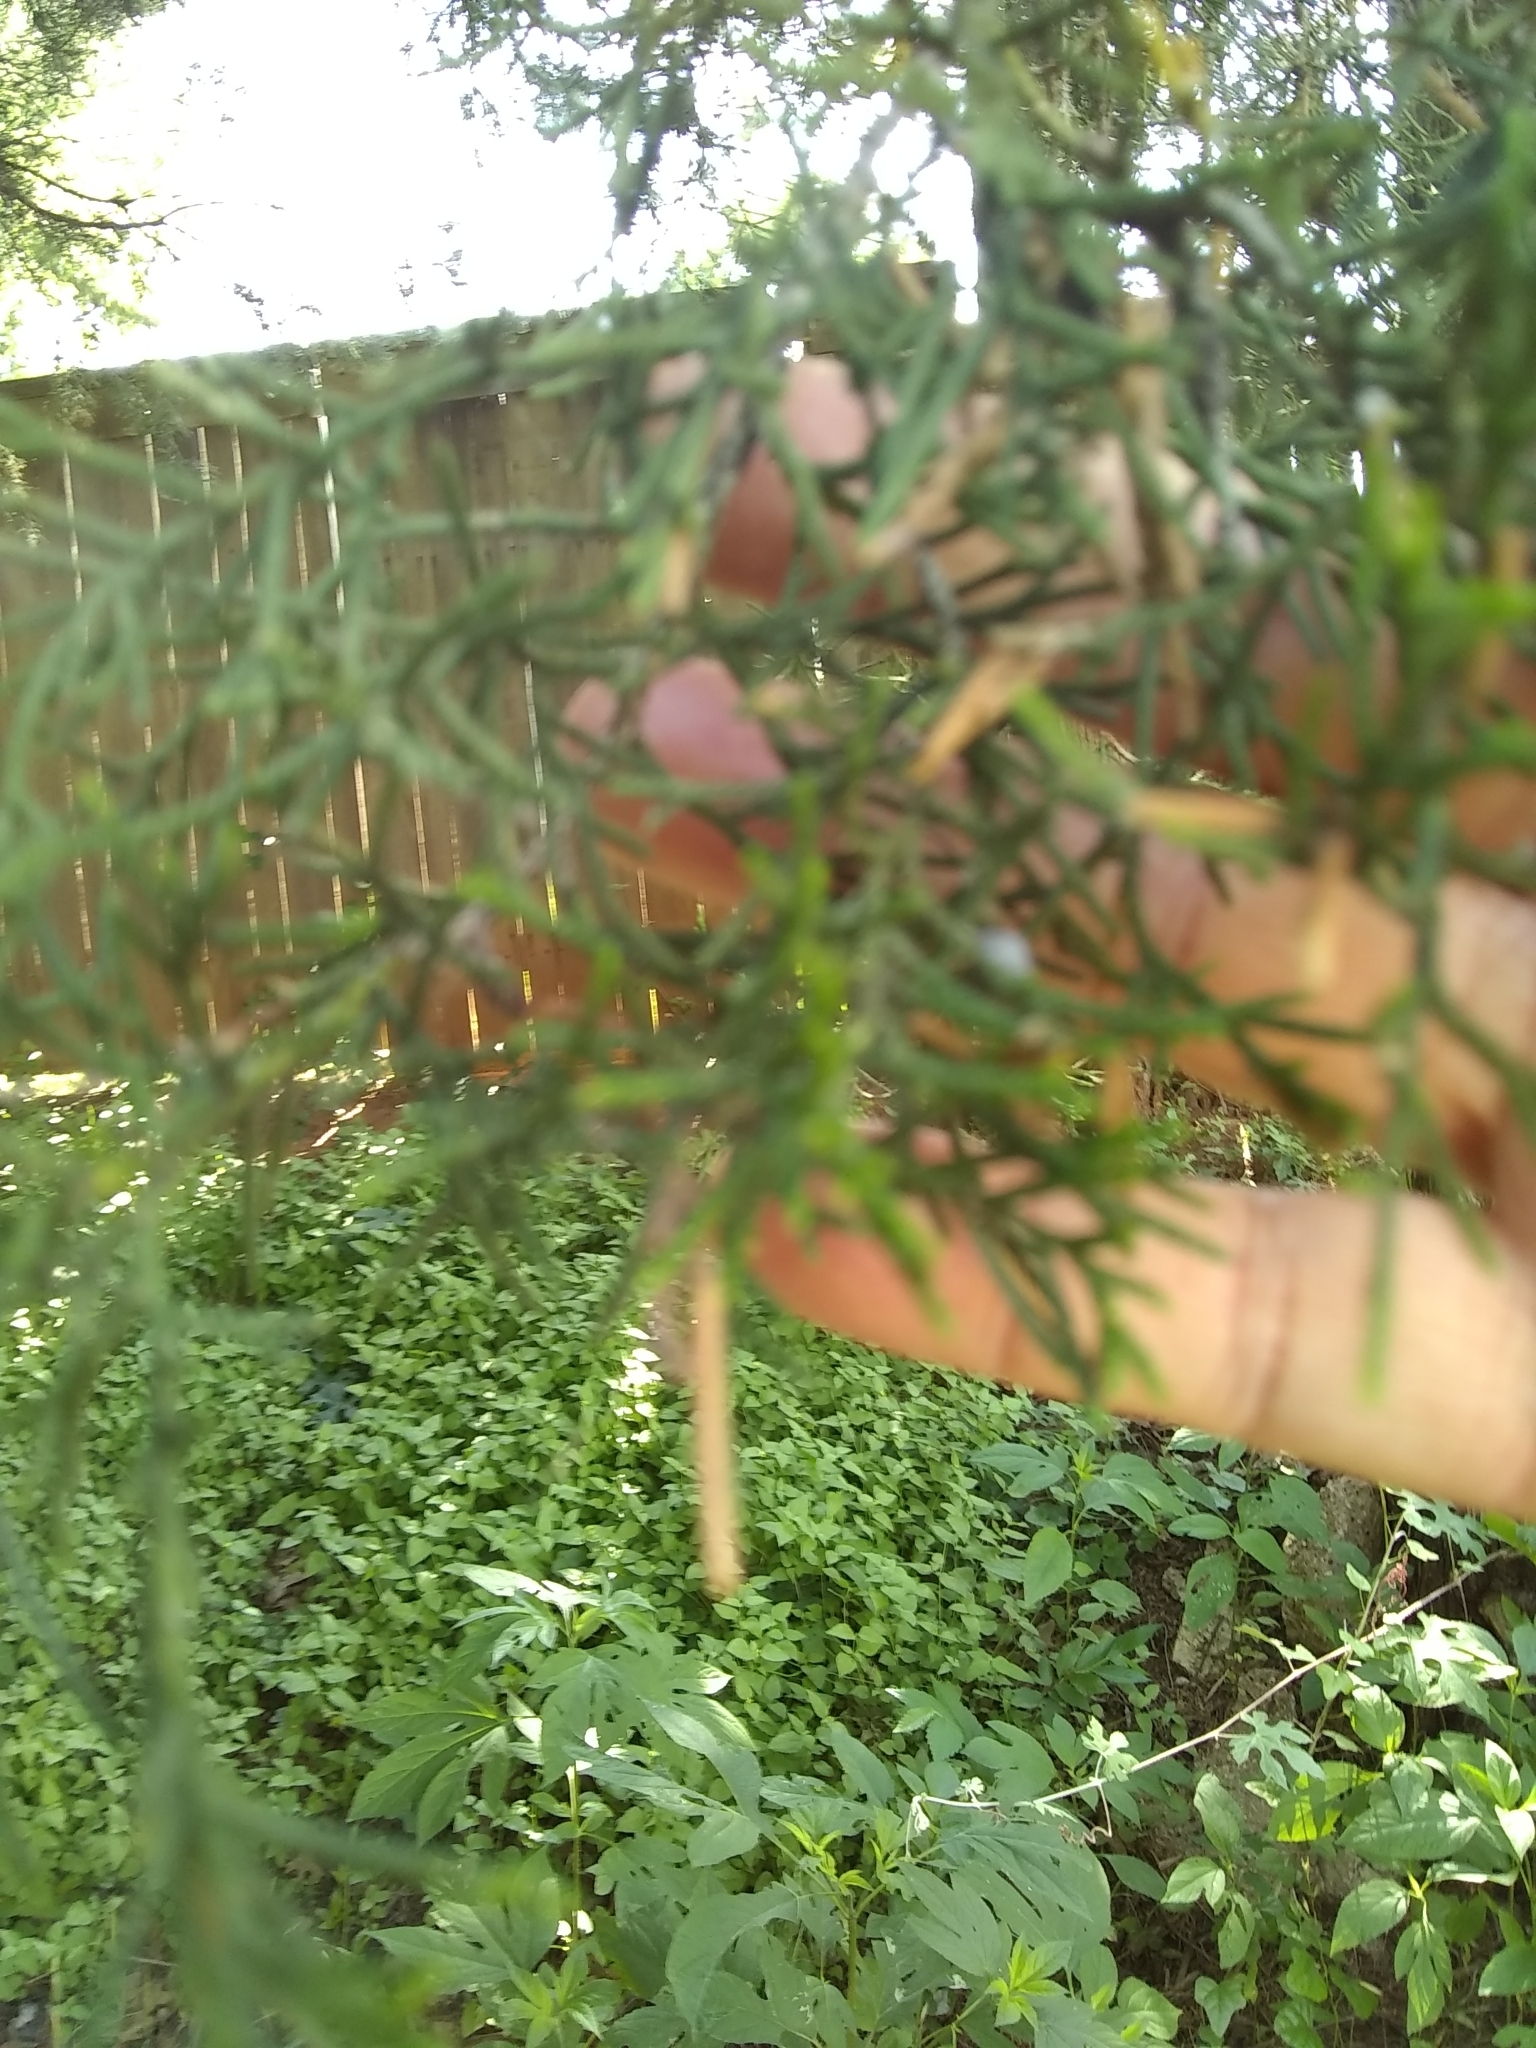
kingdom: Plantae
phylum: Tracheophyta
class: Pinopsida
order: Pinales
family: Cupressaceae
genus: Juniperus
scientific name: Juniperus virginiana
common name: Red juniper
